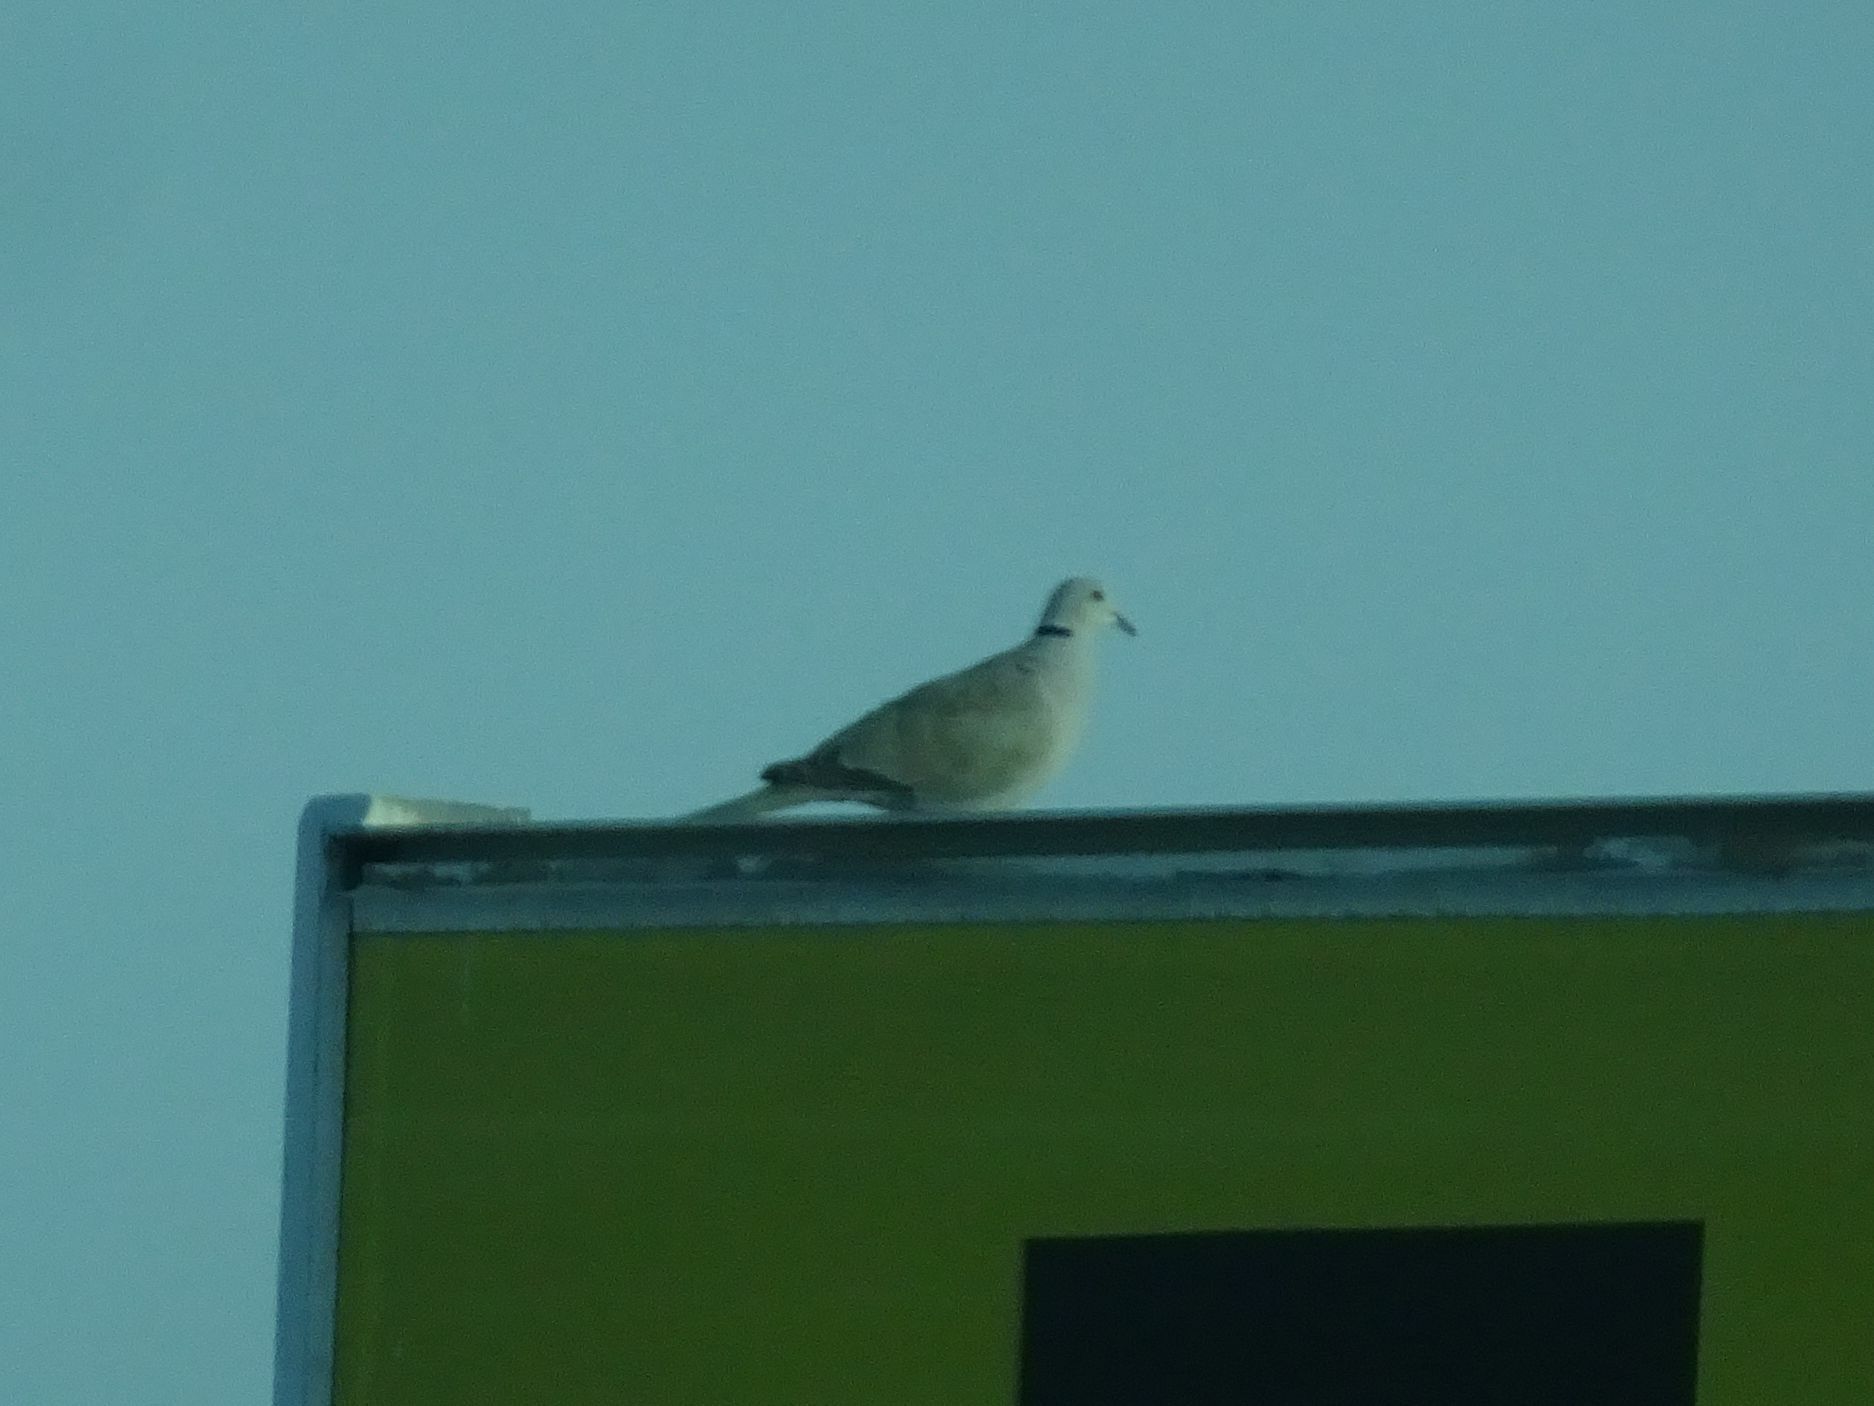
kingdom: Animalia
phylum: Chordata
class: Aves
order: Columbiformes
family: Columbidae
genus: Streptopelia
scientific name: Streptopelia decaocto
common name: Eurasian collared dove
